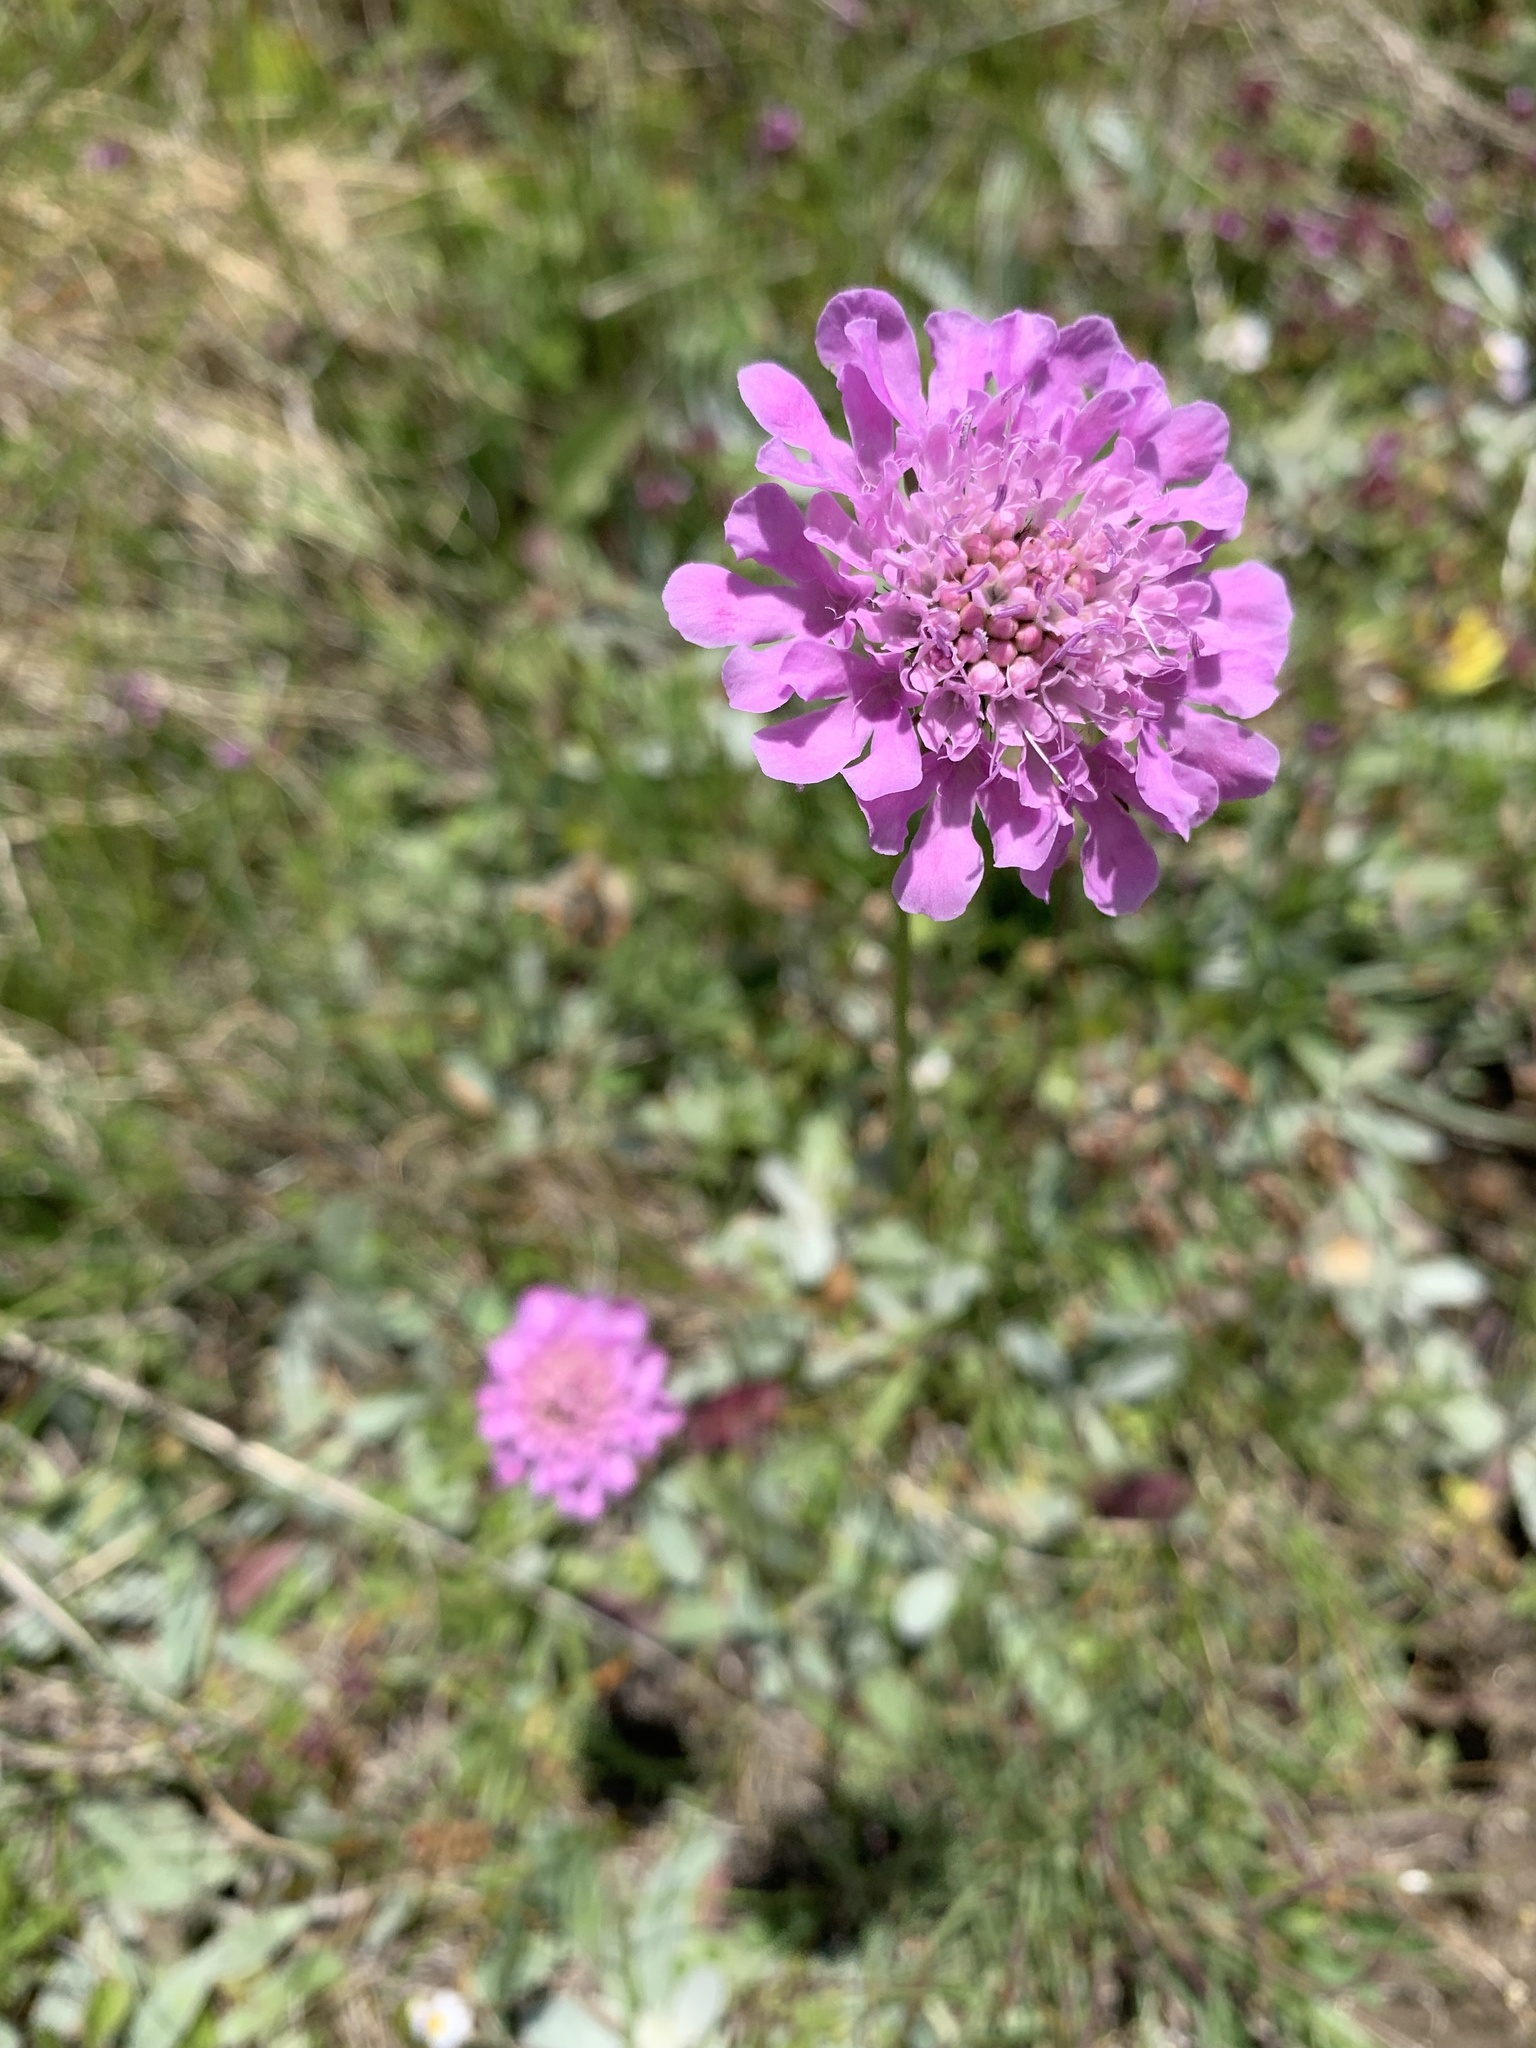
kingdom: Plantae
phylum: Tracheophyta
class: Magnoliopsida
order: Dipsacales
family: Caprifoliaceae
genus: Scabiosa
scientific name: Scabiosa lucida
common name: Shining scabious
